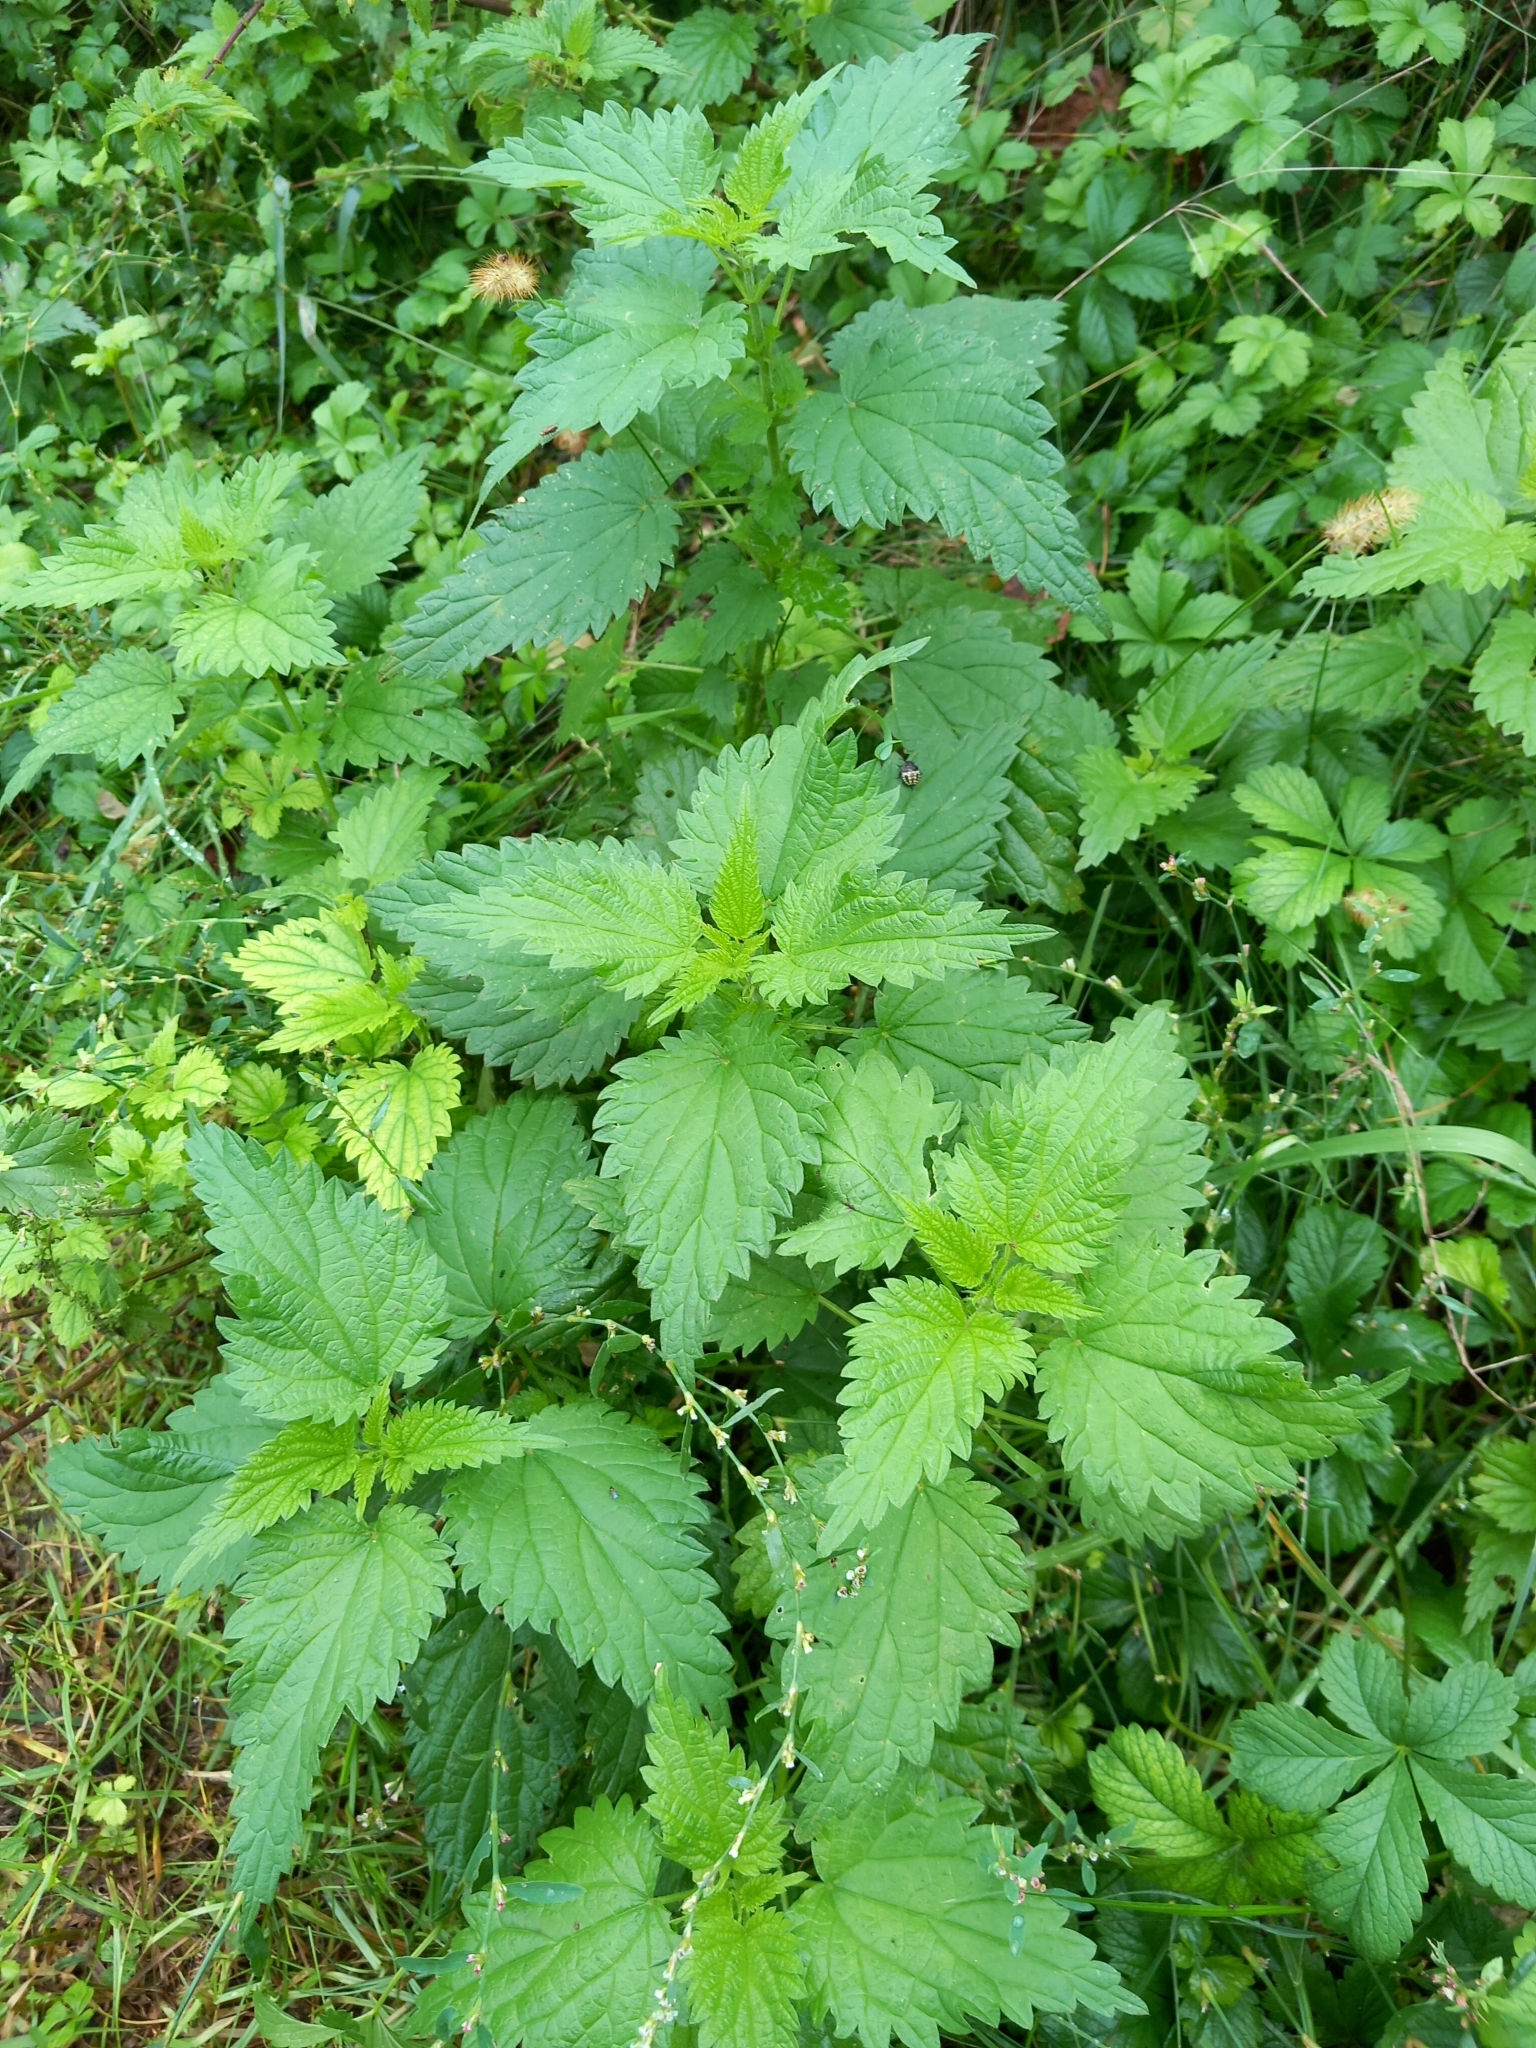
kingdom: Plantae
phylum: Tracheophyta
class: Magnoliopsida
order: Rosales
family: Urticaceae
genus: Urtica
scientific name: Urtica dioica
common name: Common nettle
